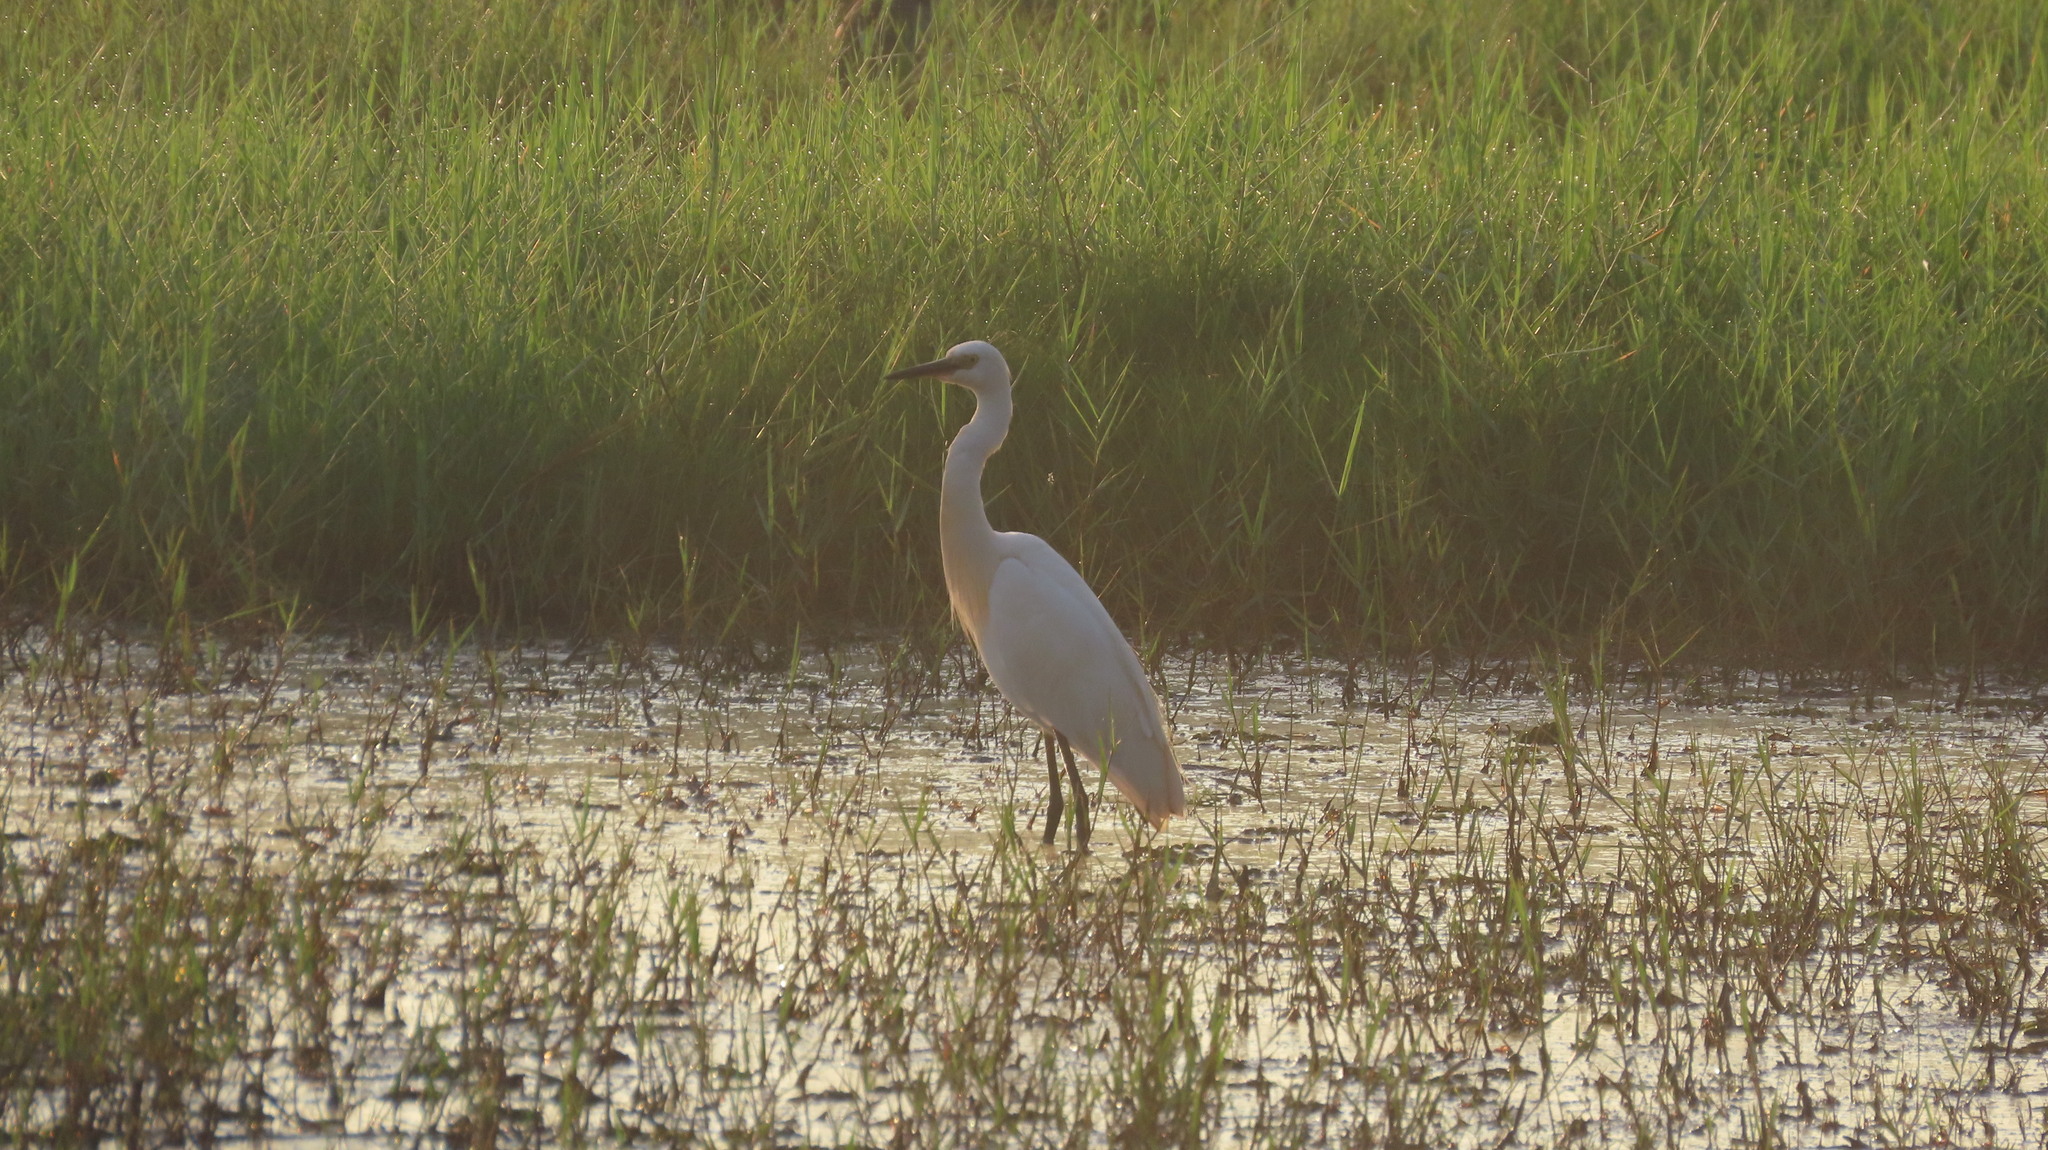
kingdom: Animalia
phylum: Chordata
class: Aves
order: Pelecaniformes
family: Ardeidae
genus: Egretta
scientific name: Egretta garzetta
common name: Little egret
